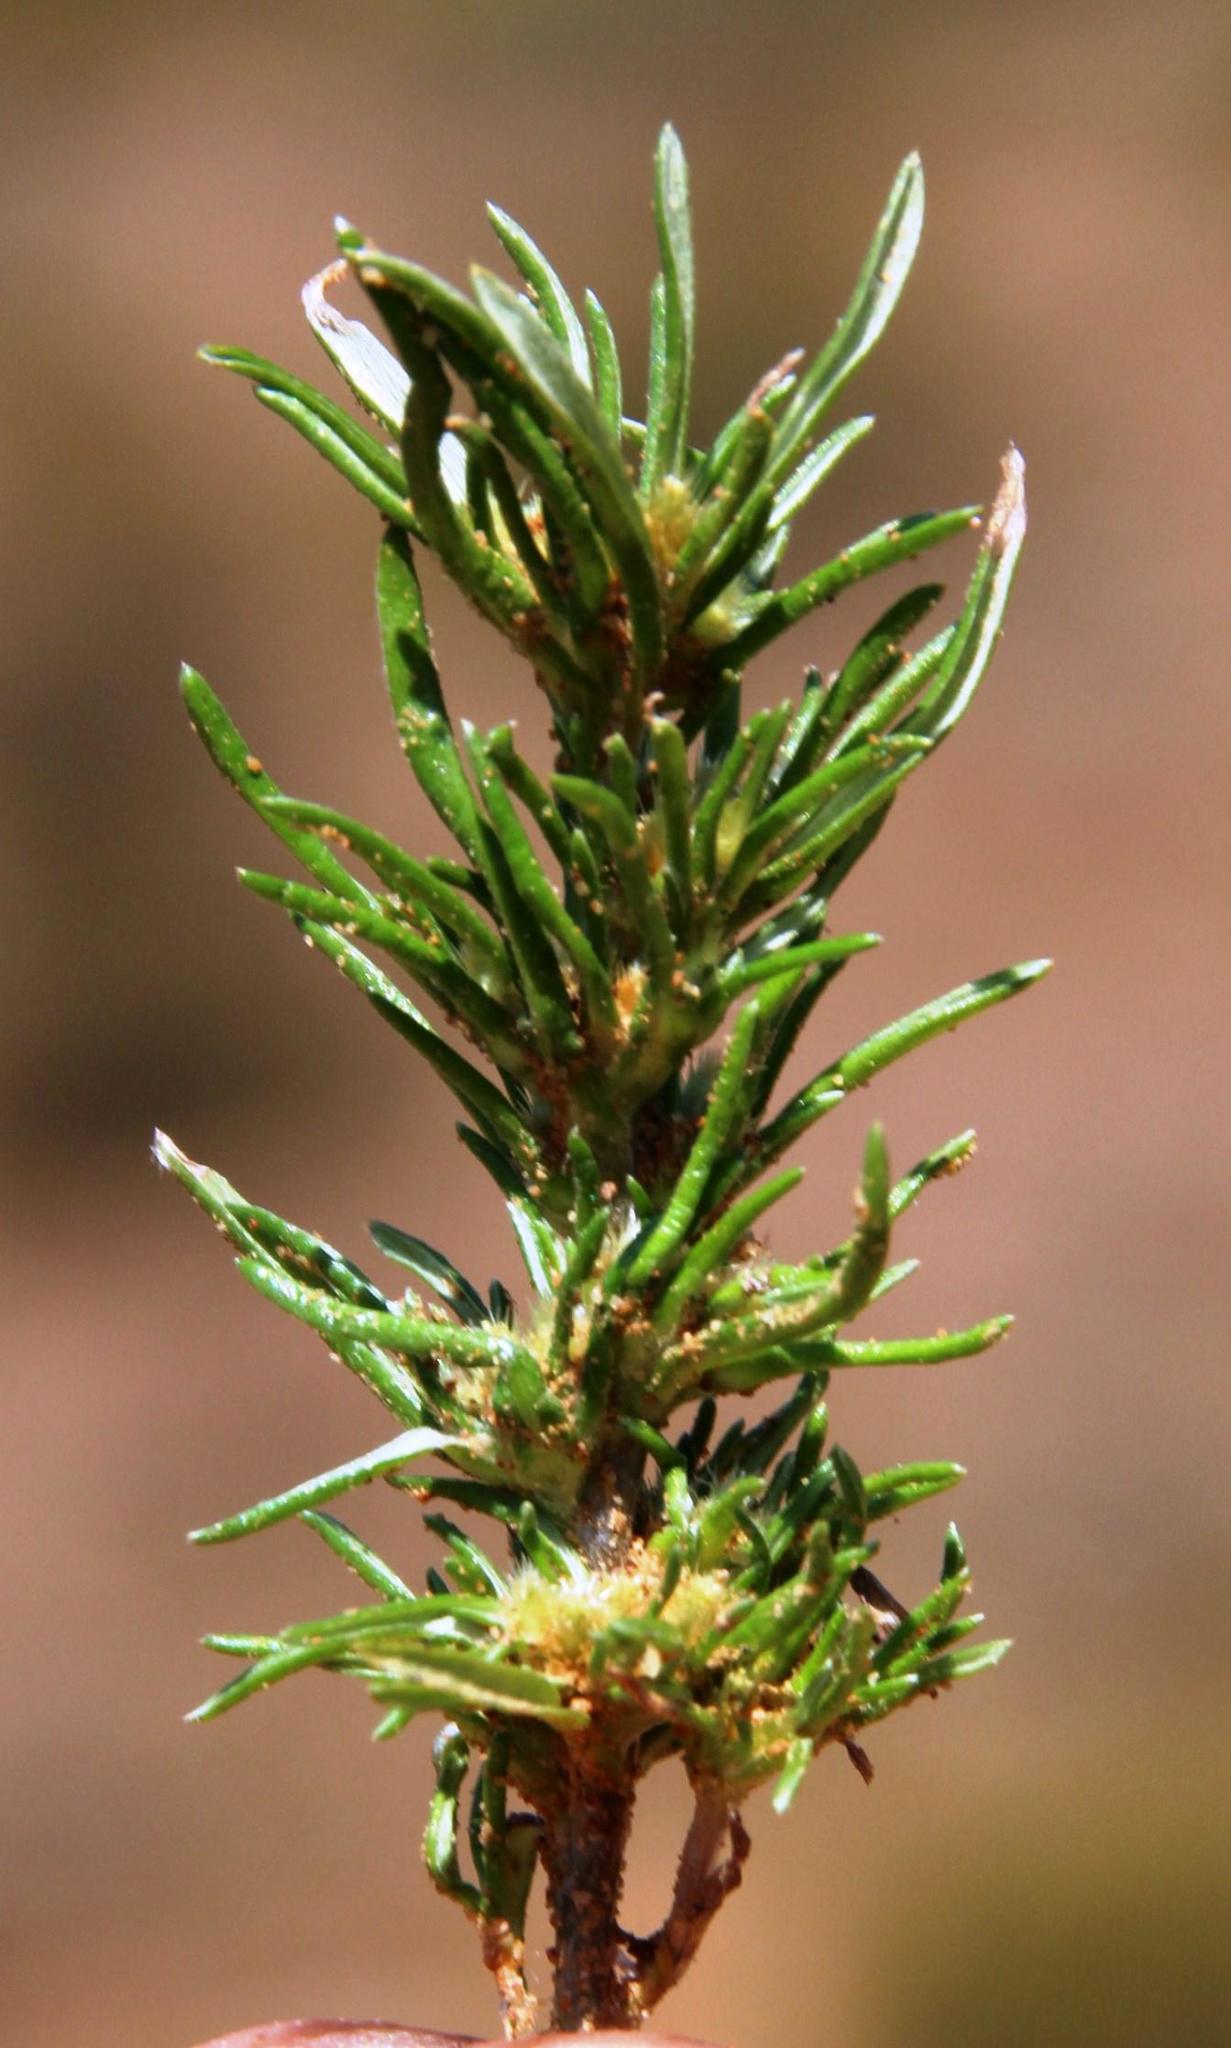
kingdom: Plantae
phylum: Tracheophyta
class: Magnoliopsida
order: Asterales
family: Asteraceae
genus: Ifloga
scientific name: Ifloga glomerata
